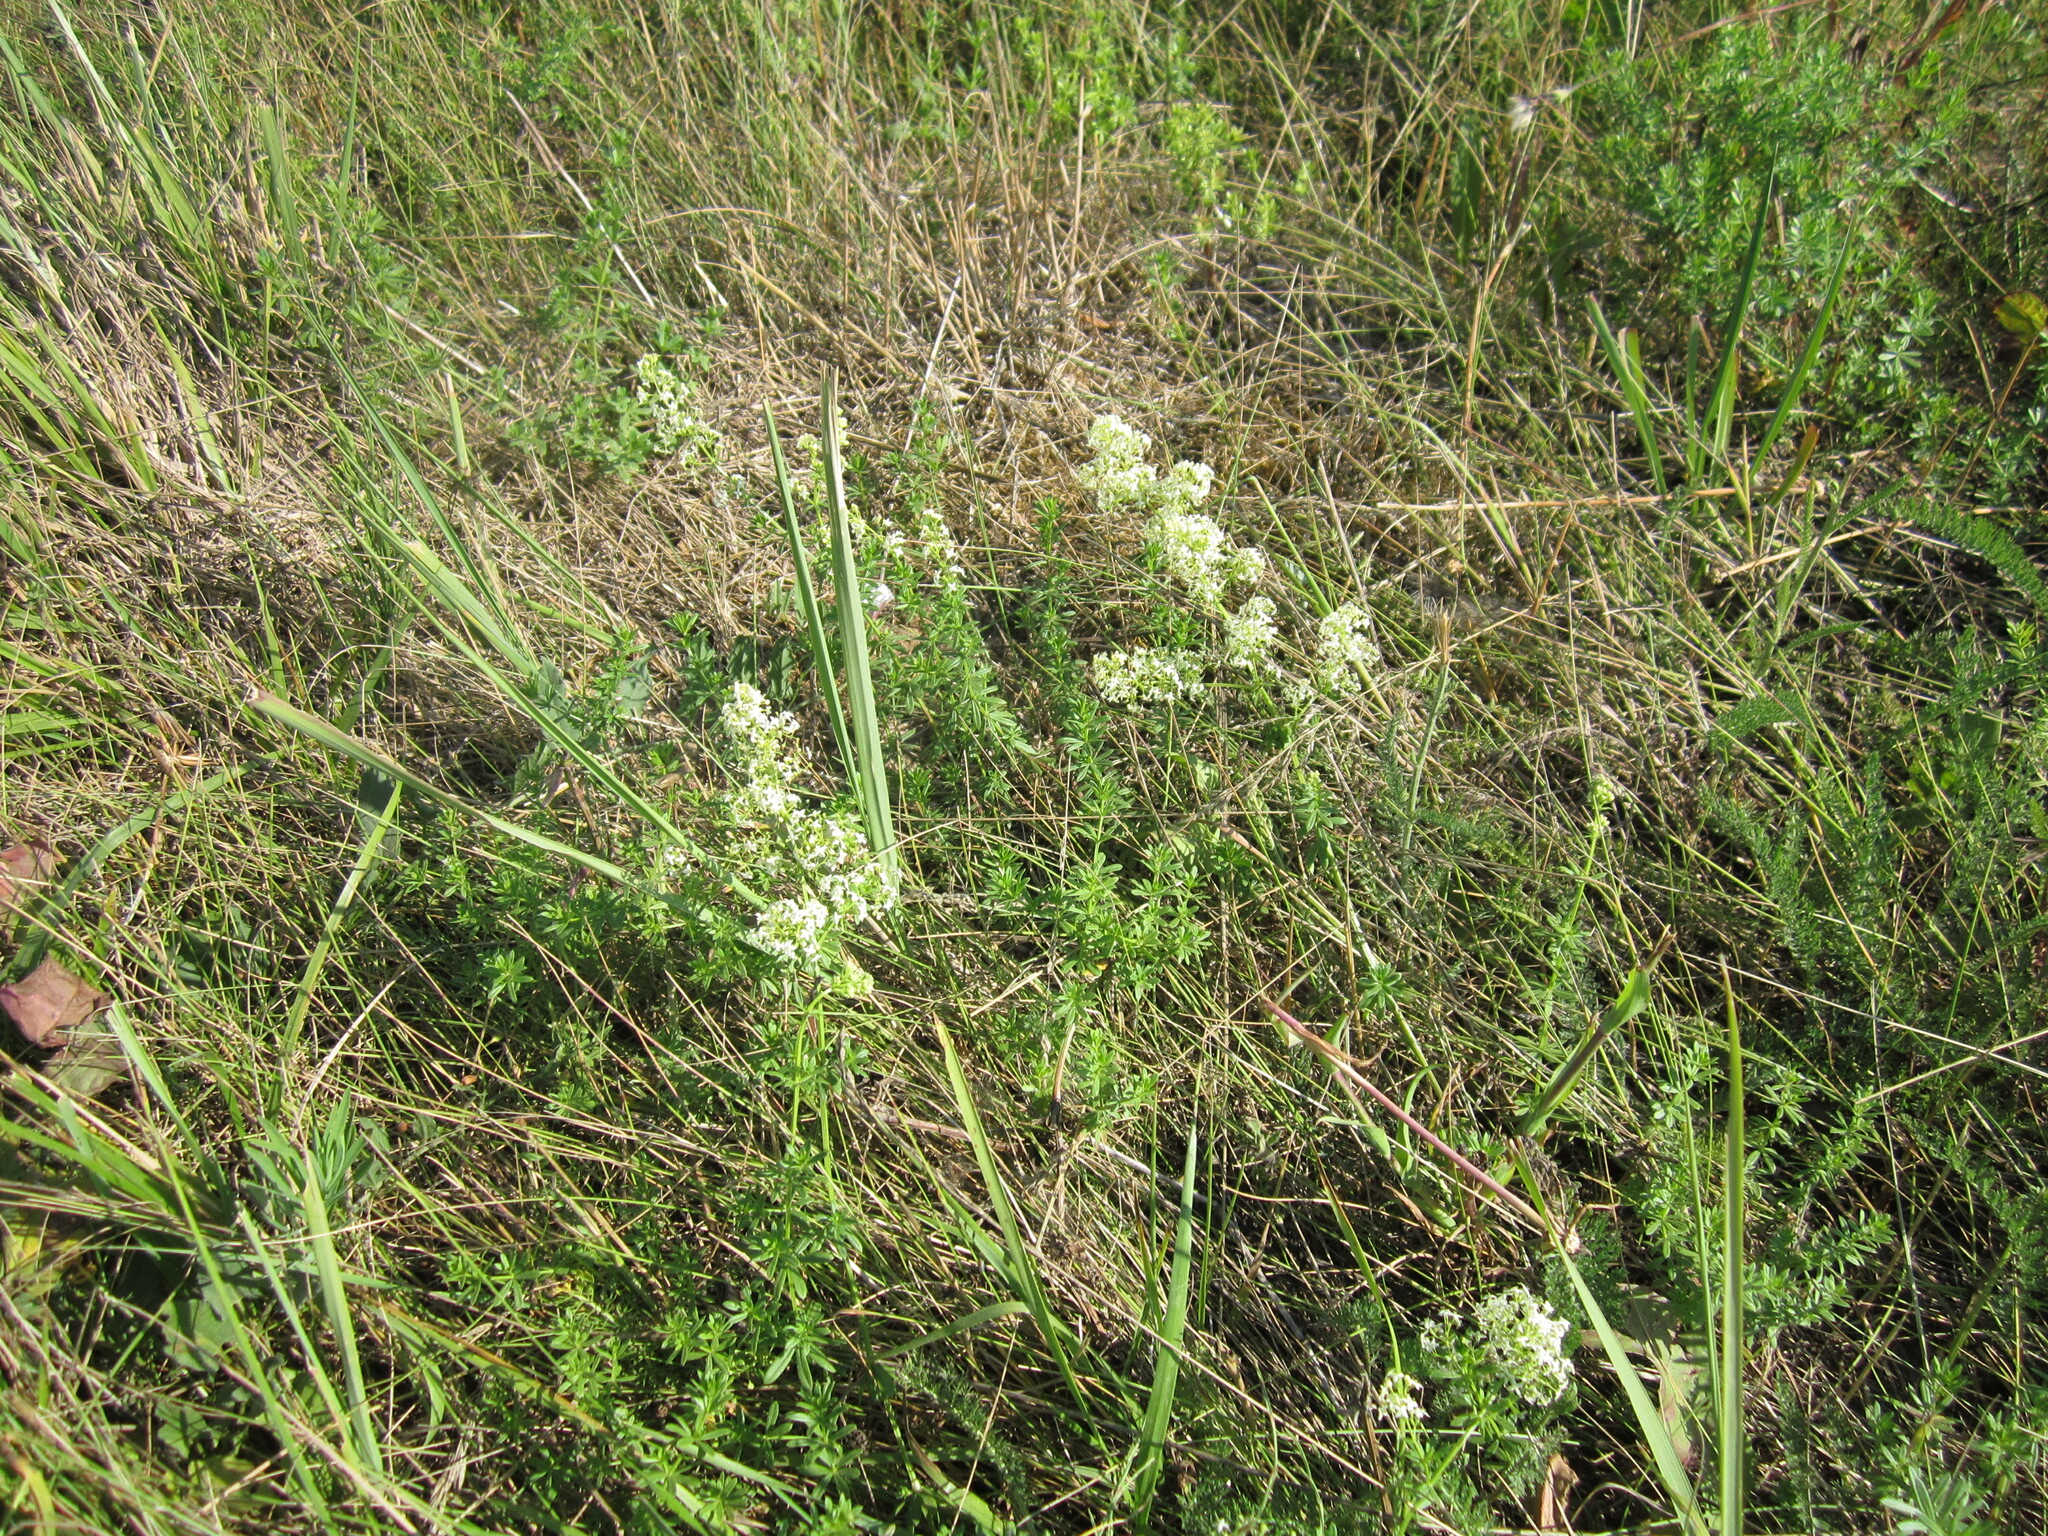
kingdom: Plantae
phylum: Tracheophyta
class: Magnoliopsida
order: Gentianales
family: Rubiaceae
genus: Galium
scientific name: Galium mollugo
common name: Hedge bedstraw
